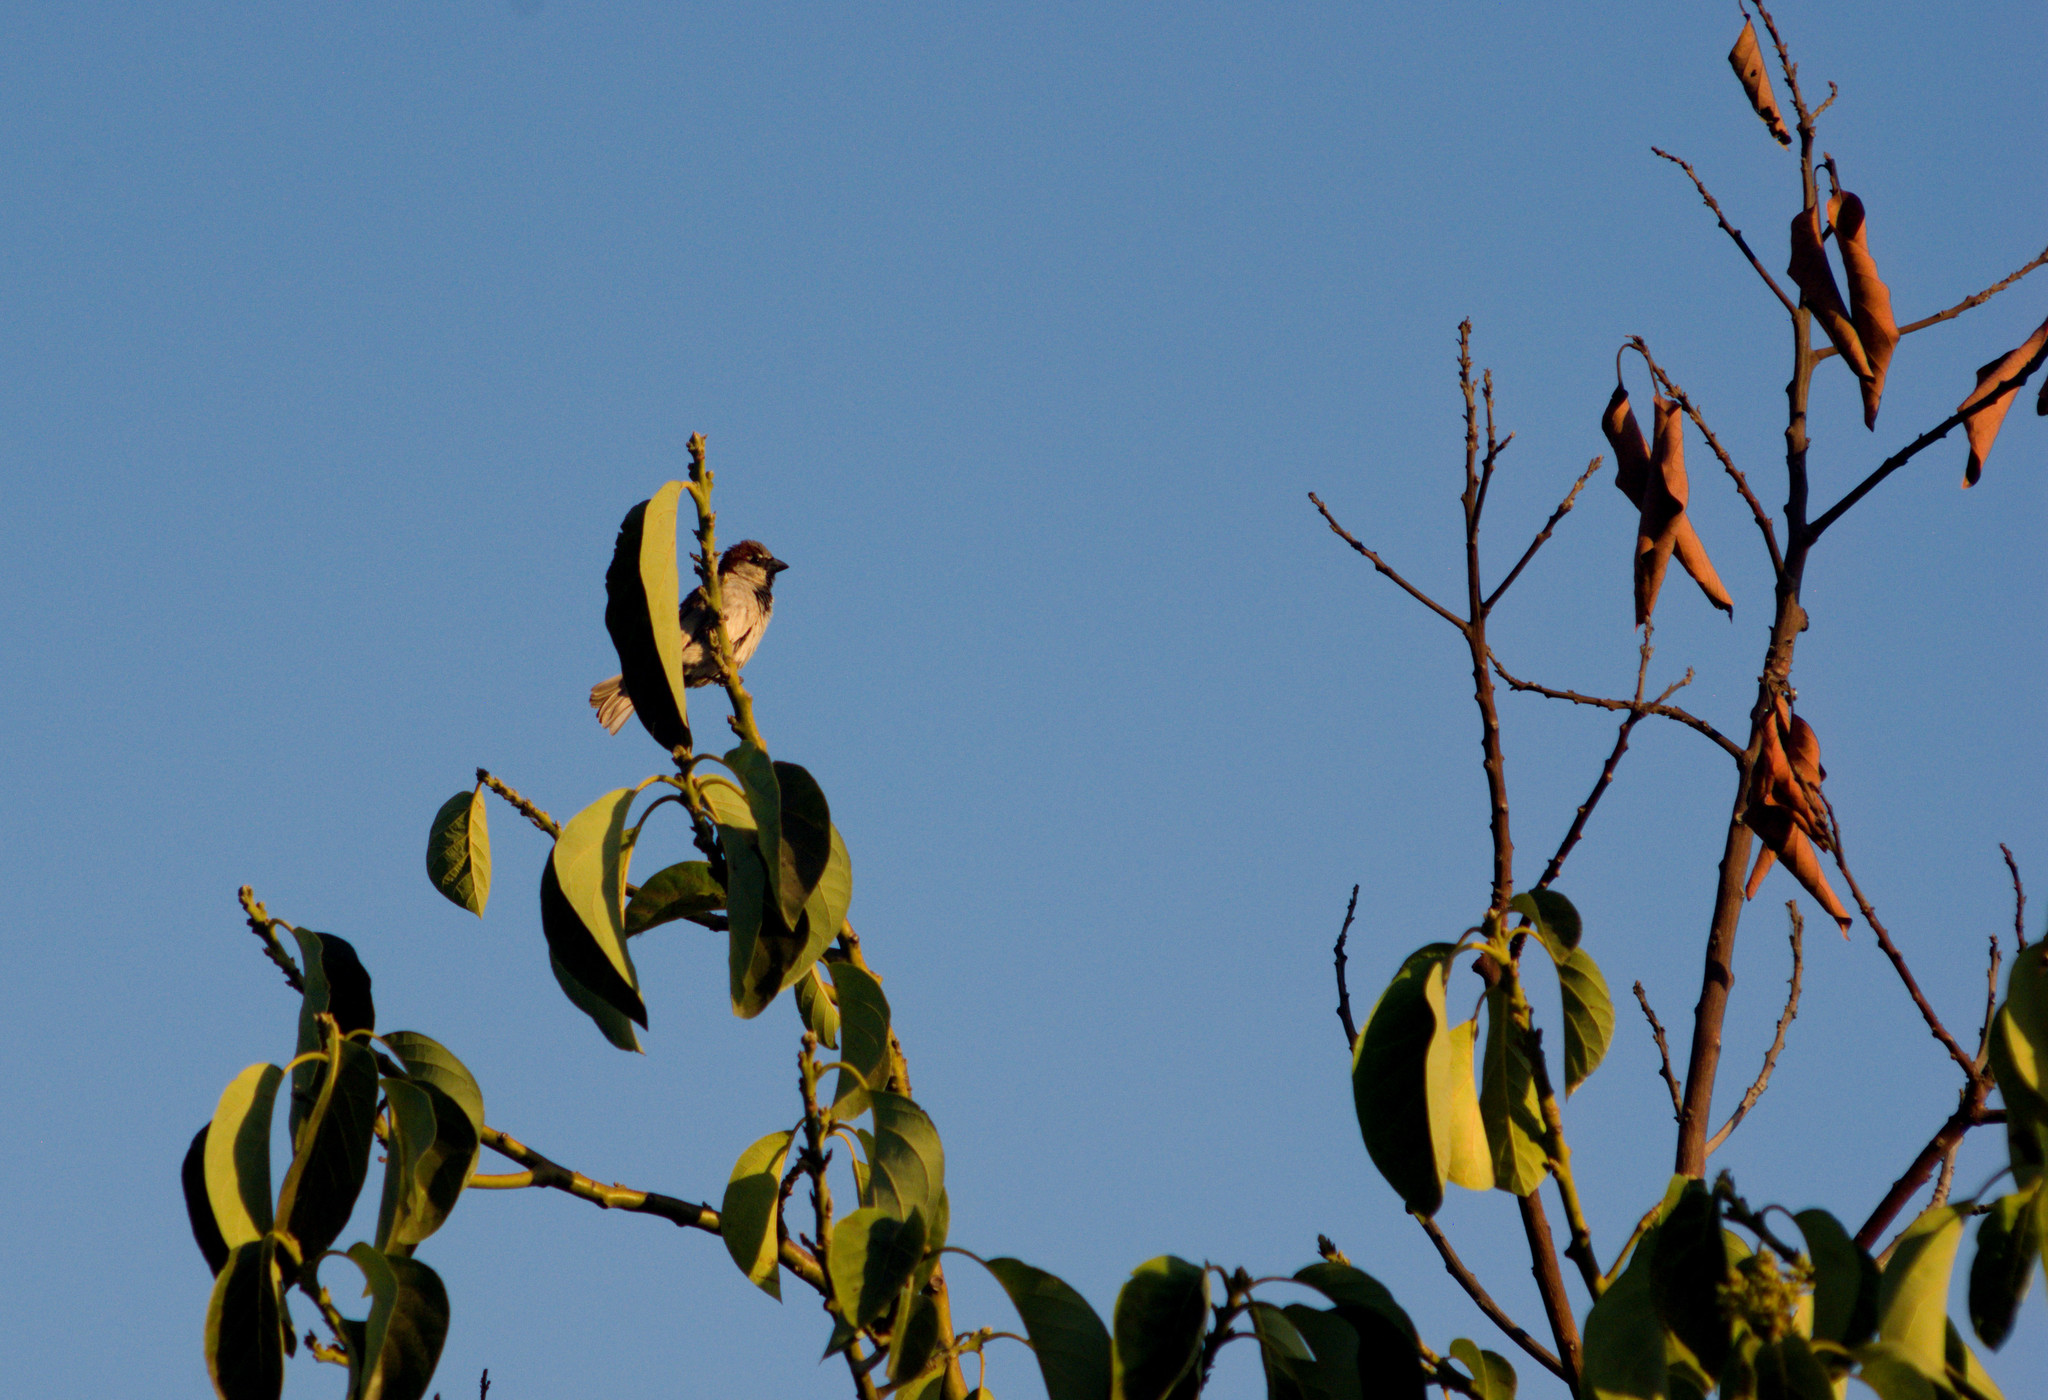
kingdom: Animalia
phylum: Chordata
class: Aves
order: Passeriformes
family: Passeridae
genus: Passer
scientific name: Passer domesticus
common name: House sparrow
